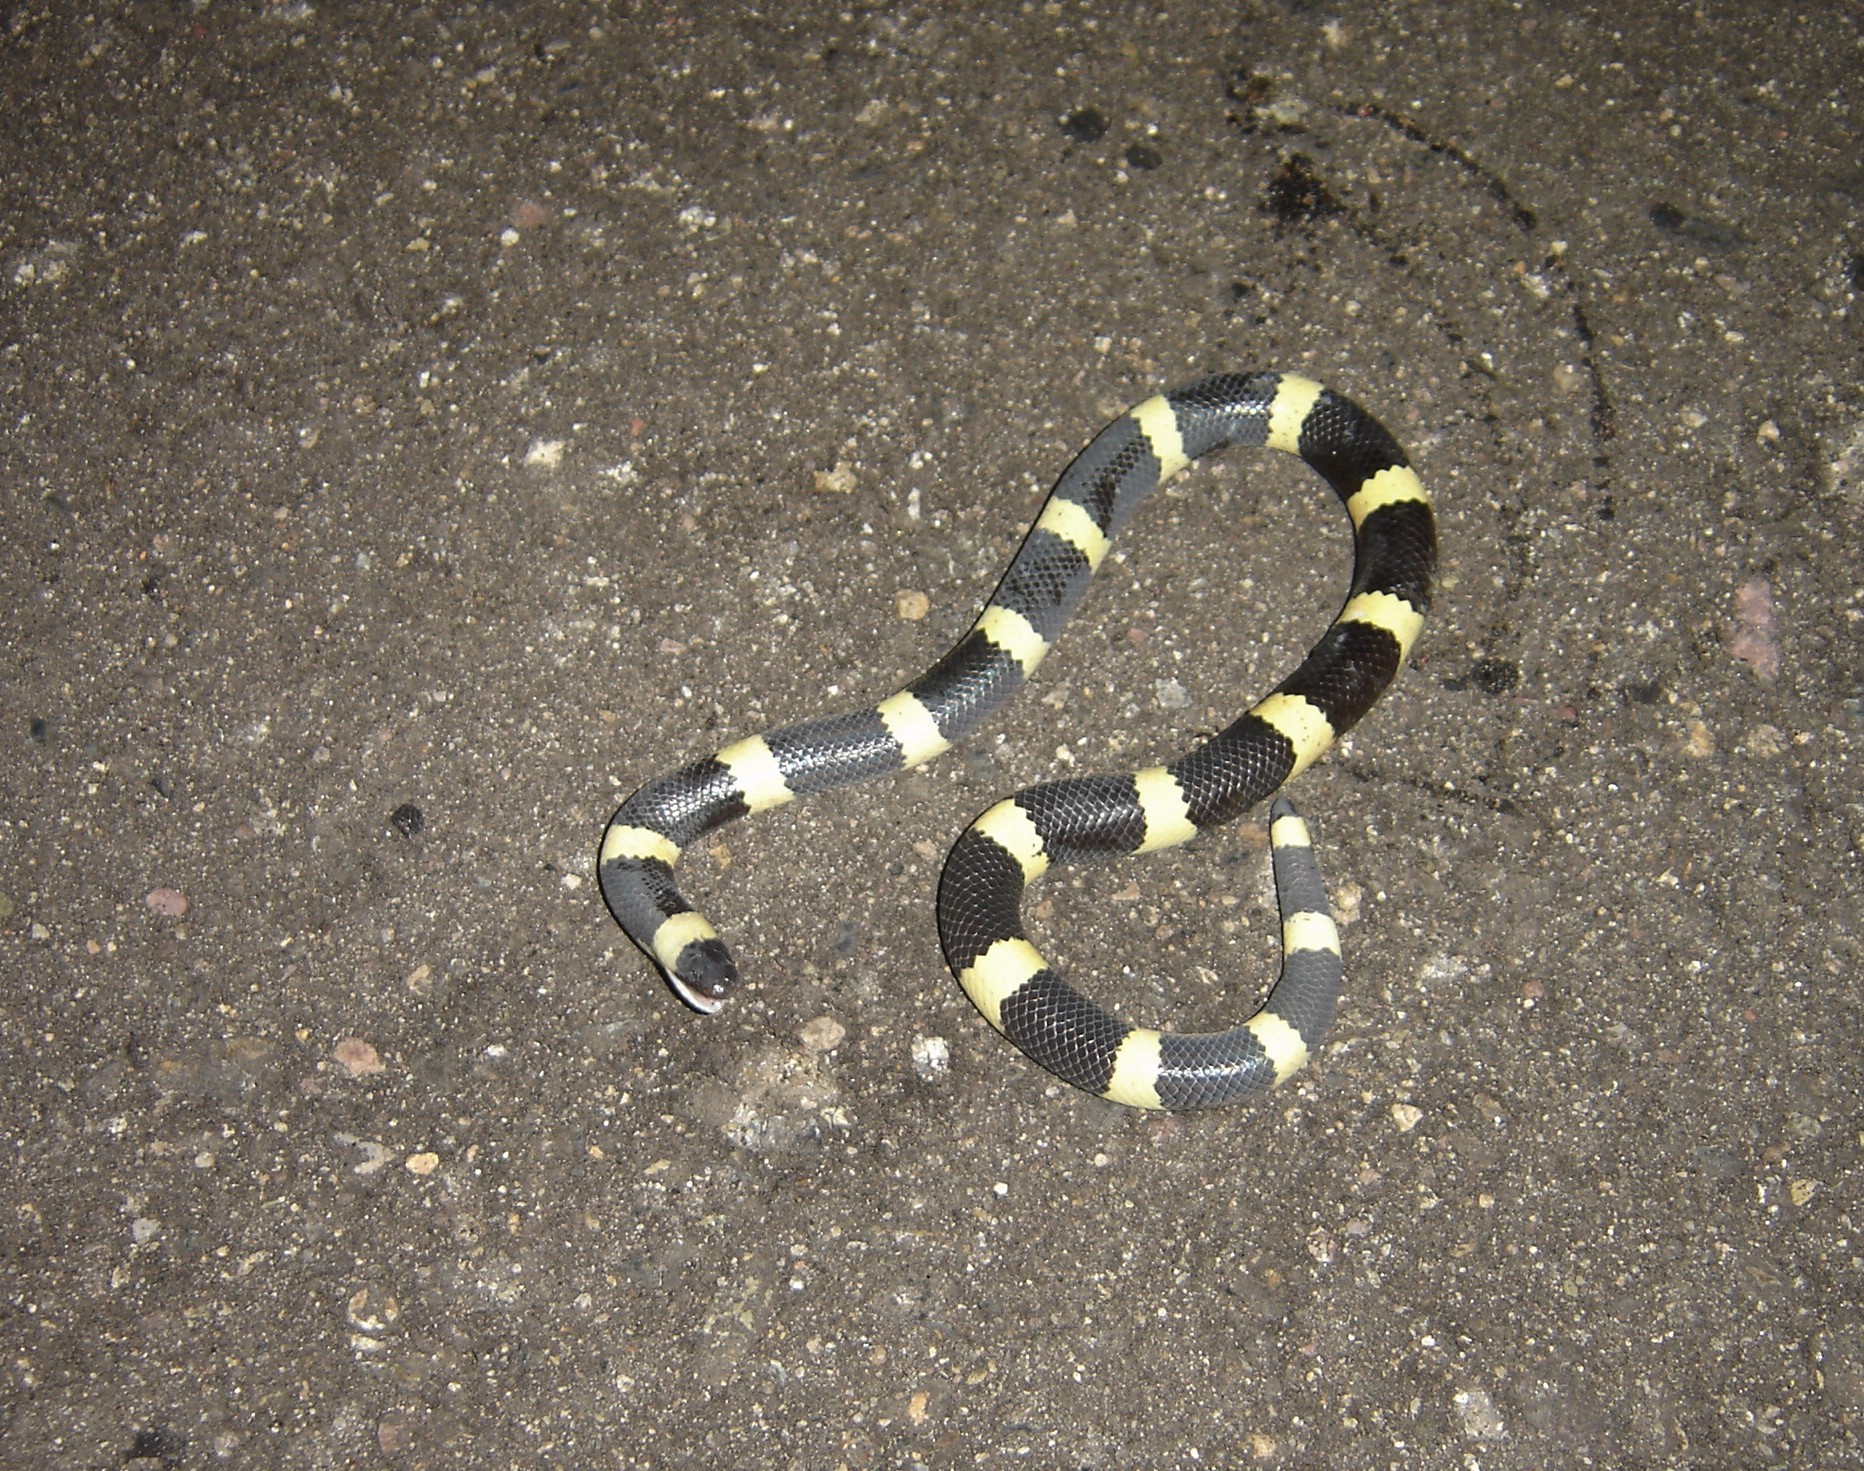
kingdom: Animalia
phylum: Chordata
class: Squamata
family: Colubridae
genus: Sympholis
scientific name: Sympholis lippiens
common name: Mexican short-tail snake
